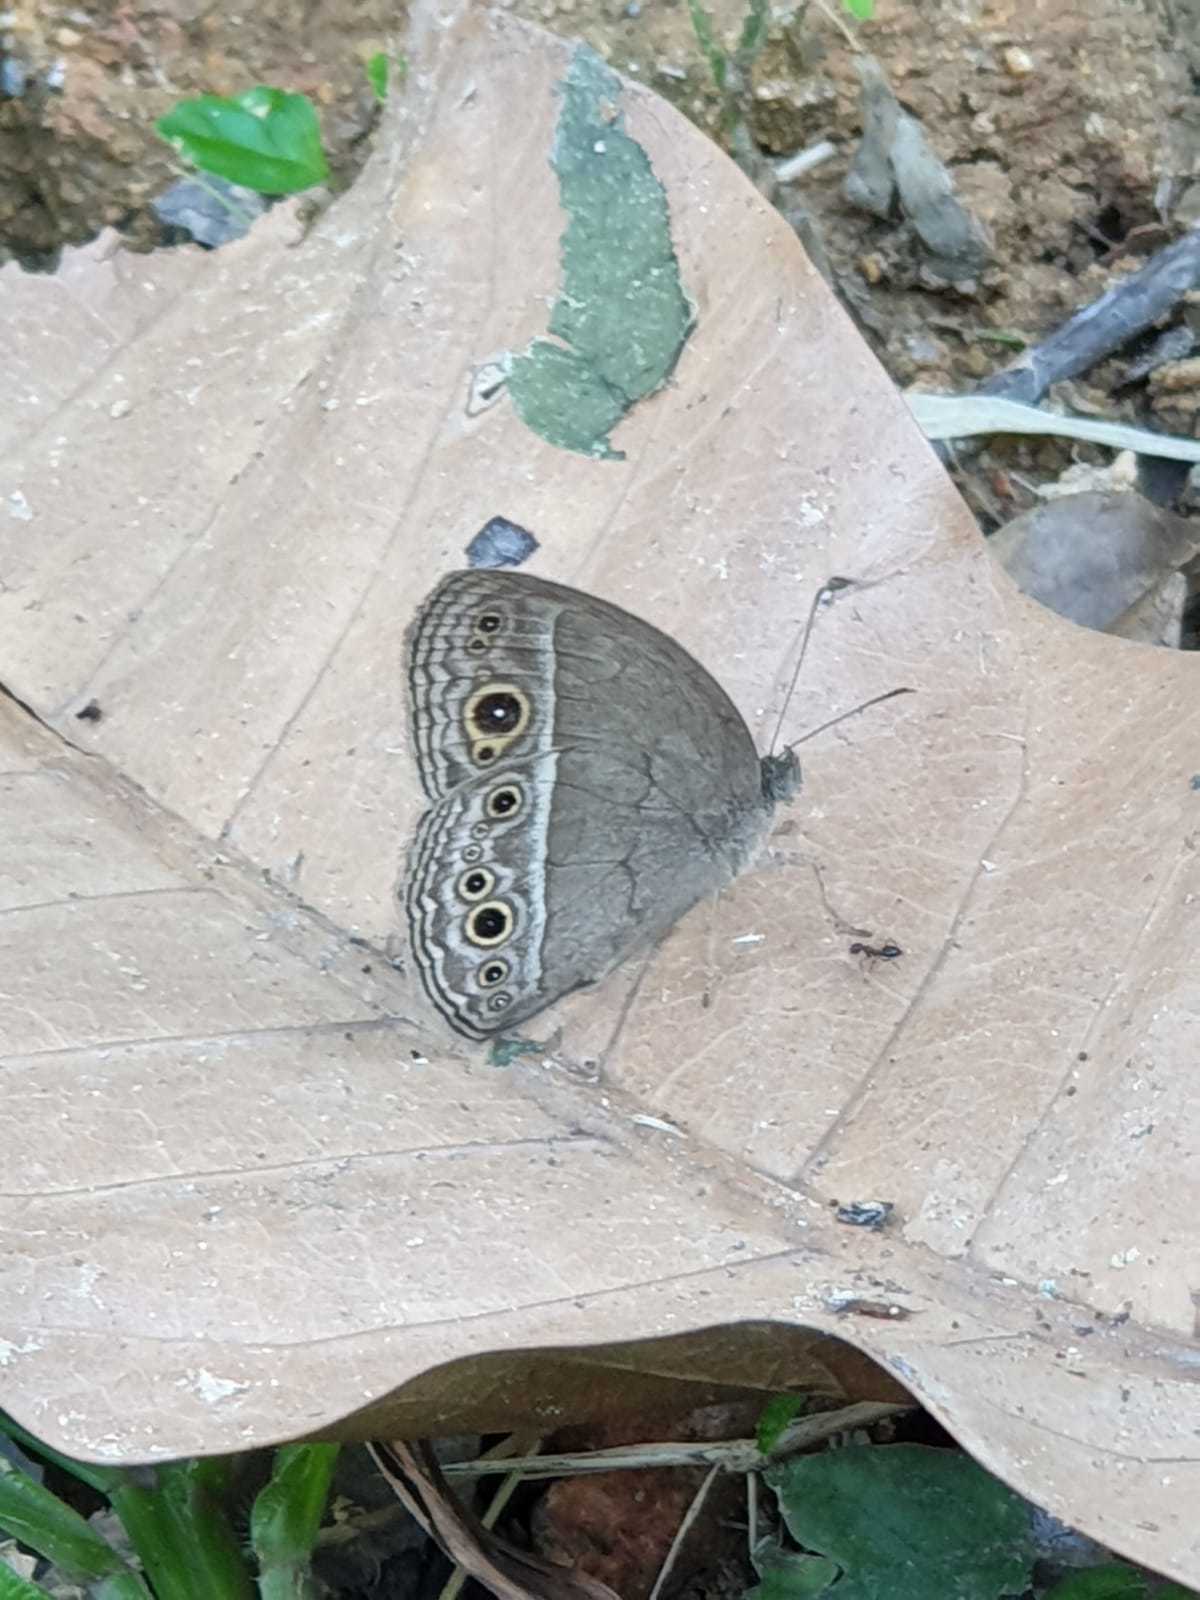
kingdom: Animalia
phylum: Arthropoda
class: Insecta
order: Lepidoptera
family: Nymphalidae
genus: Mycalesis
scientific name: Mycalesis perseoides
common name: Burmese bushbrown
